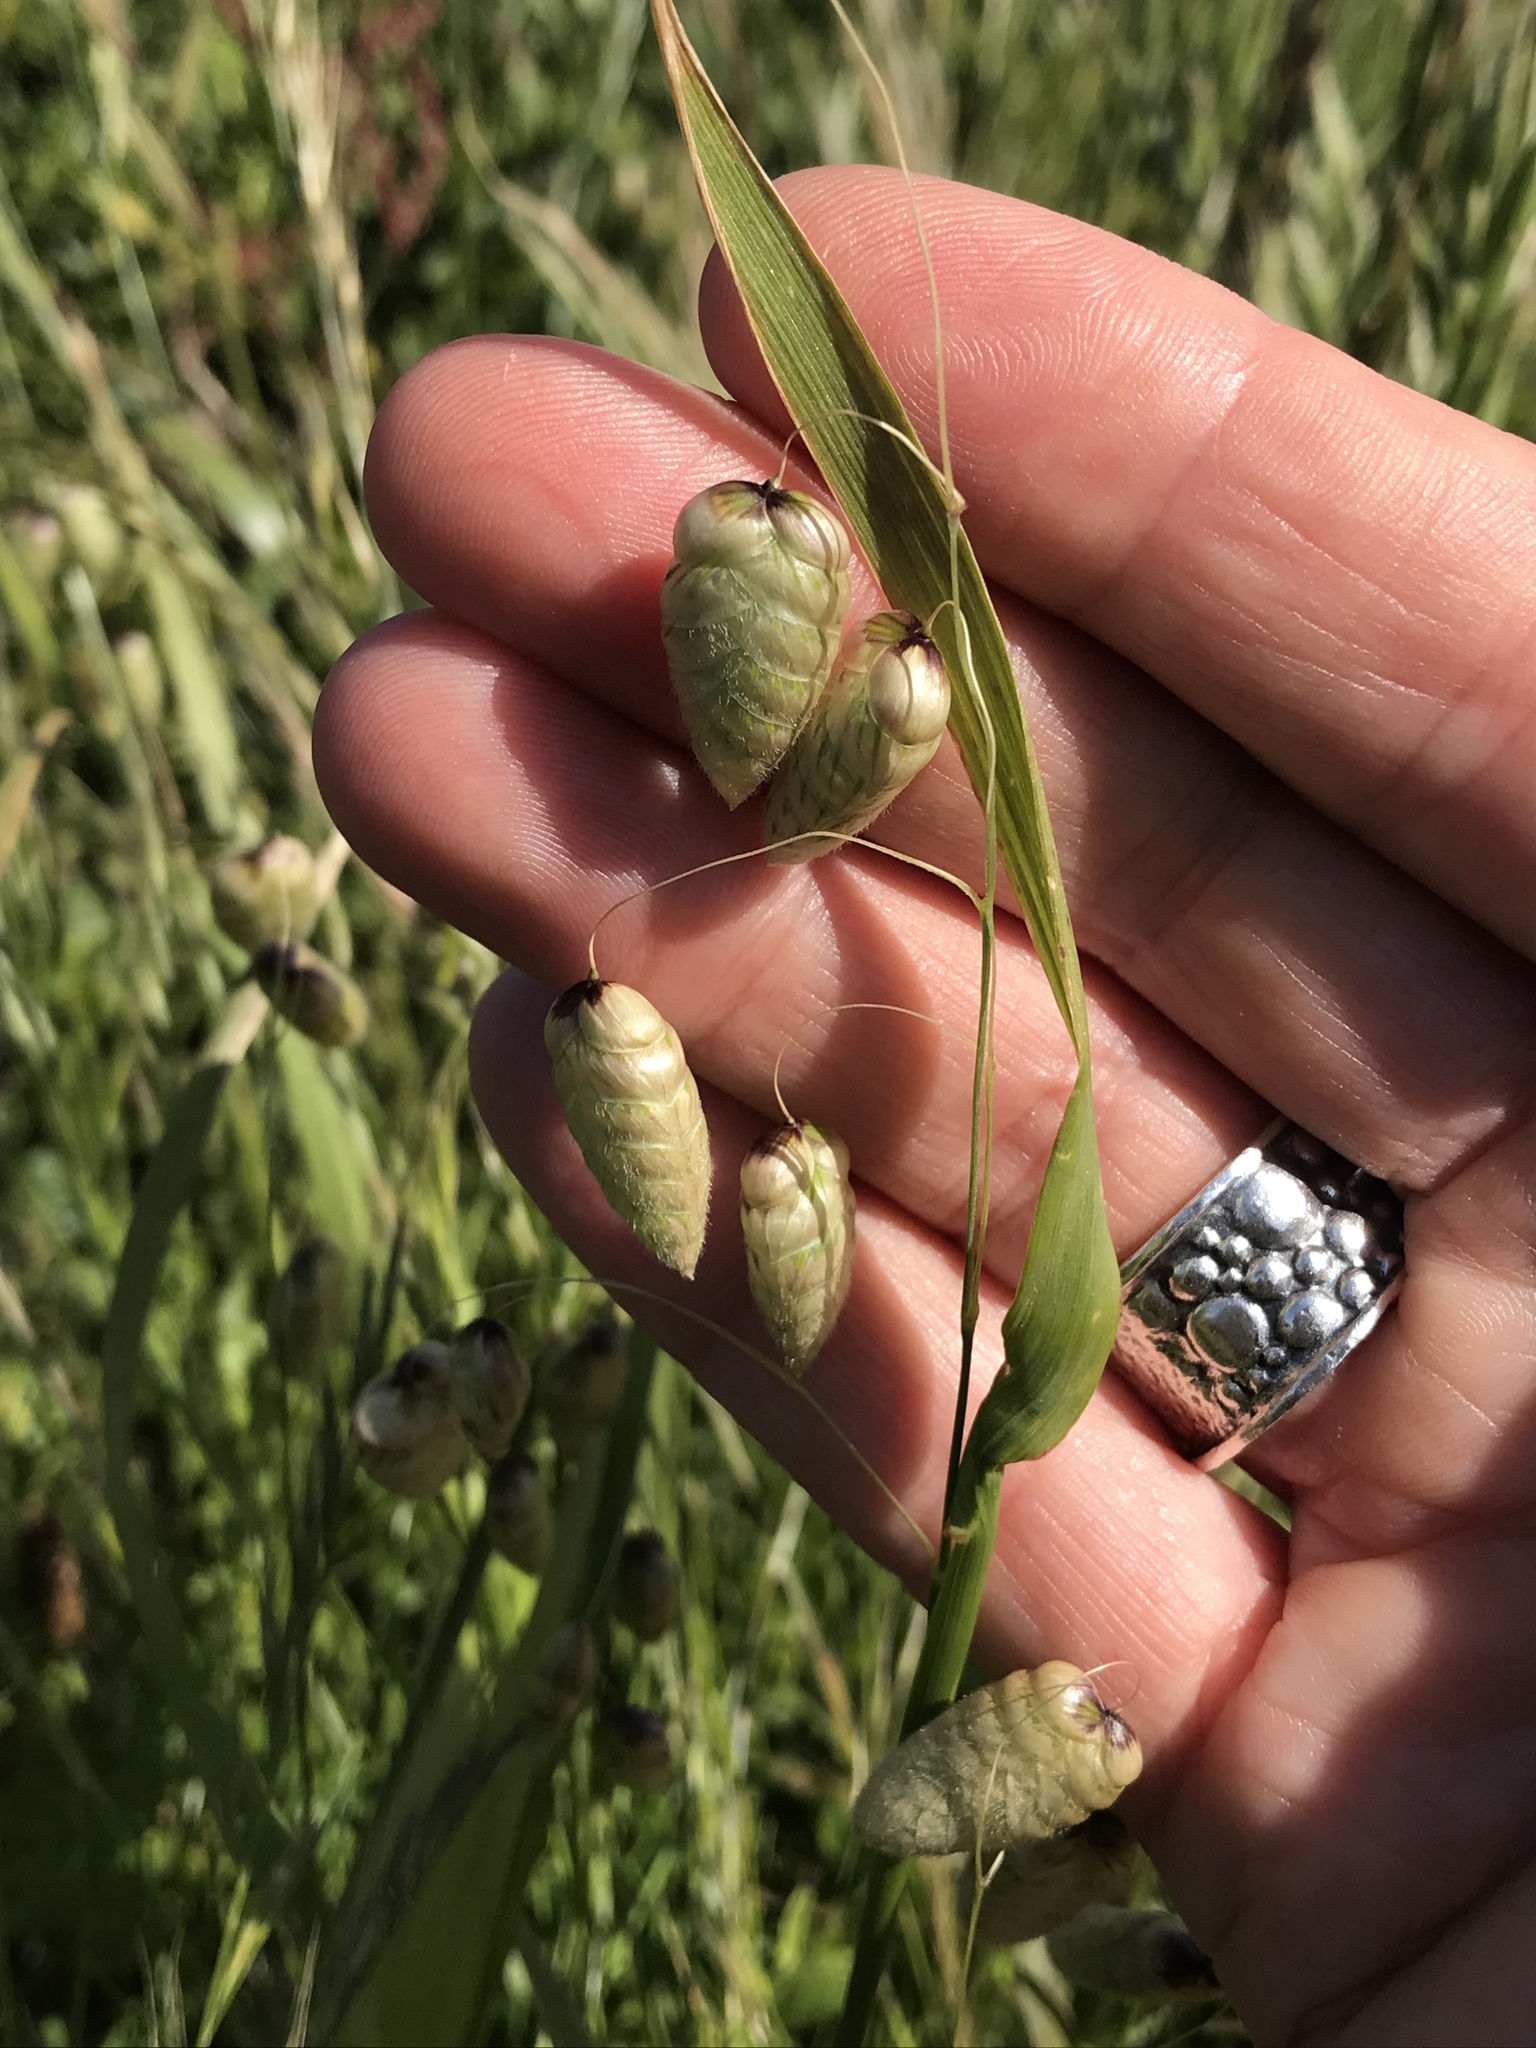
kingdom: Plantae
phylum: Tracheophyta
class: Liliopsida
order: Poales
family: Poaceae
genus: Briza
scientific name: Briza maxima
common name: Big quakinggrass
